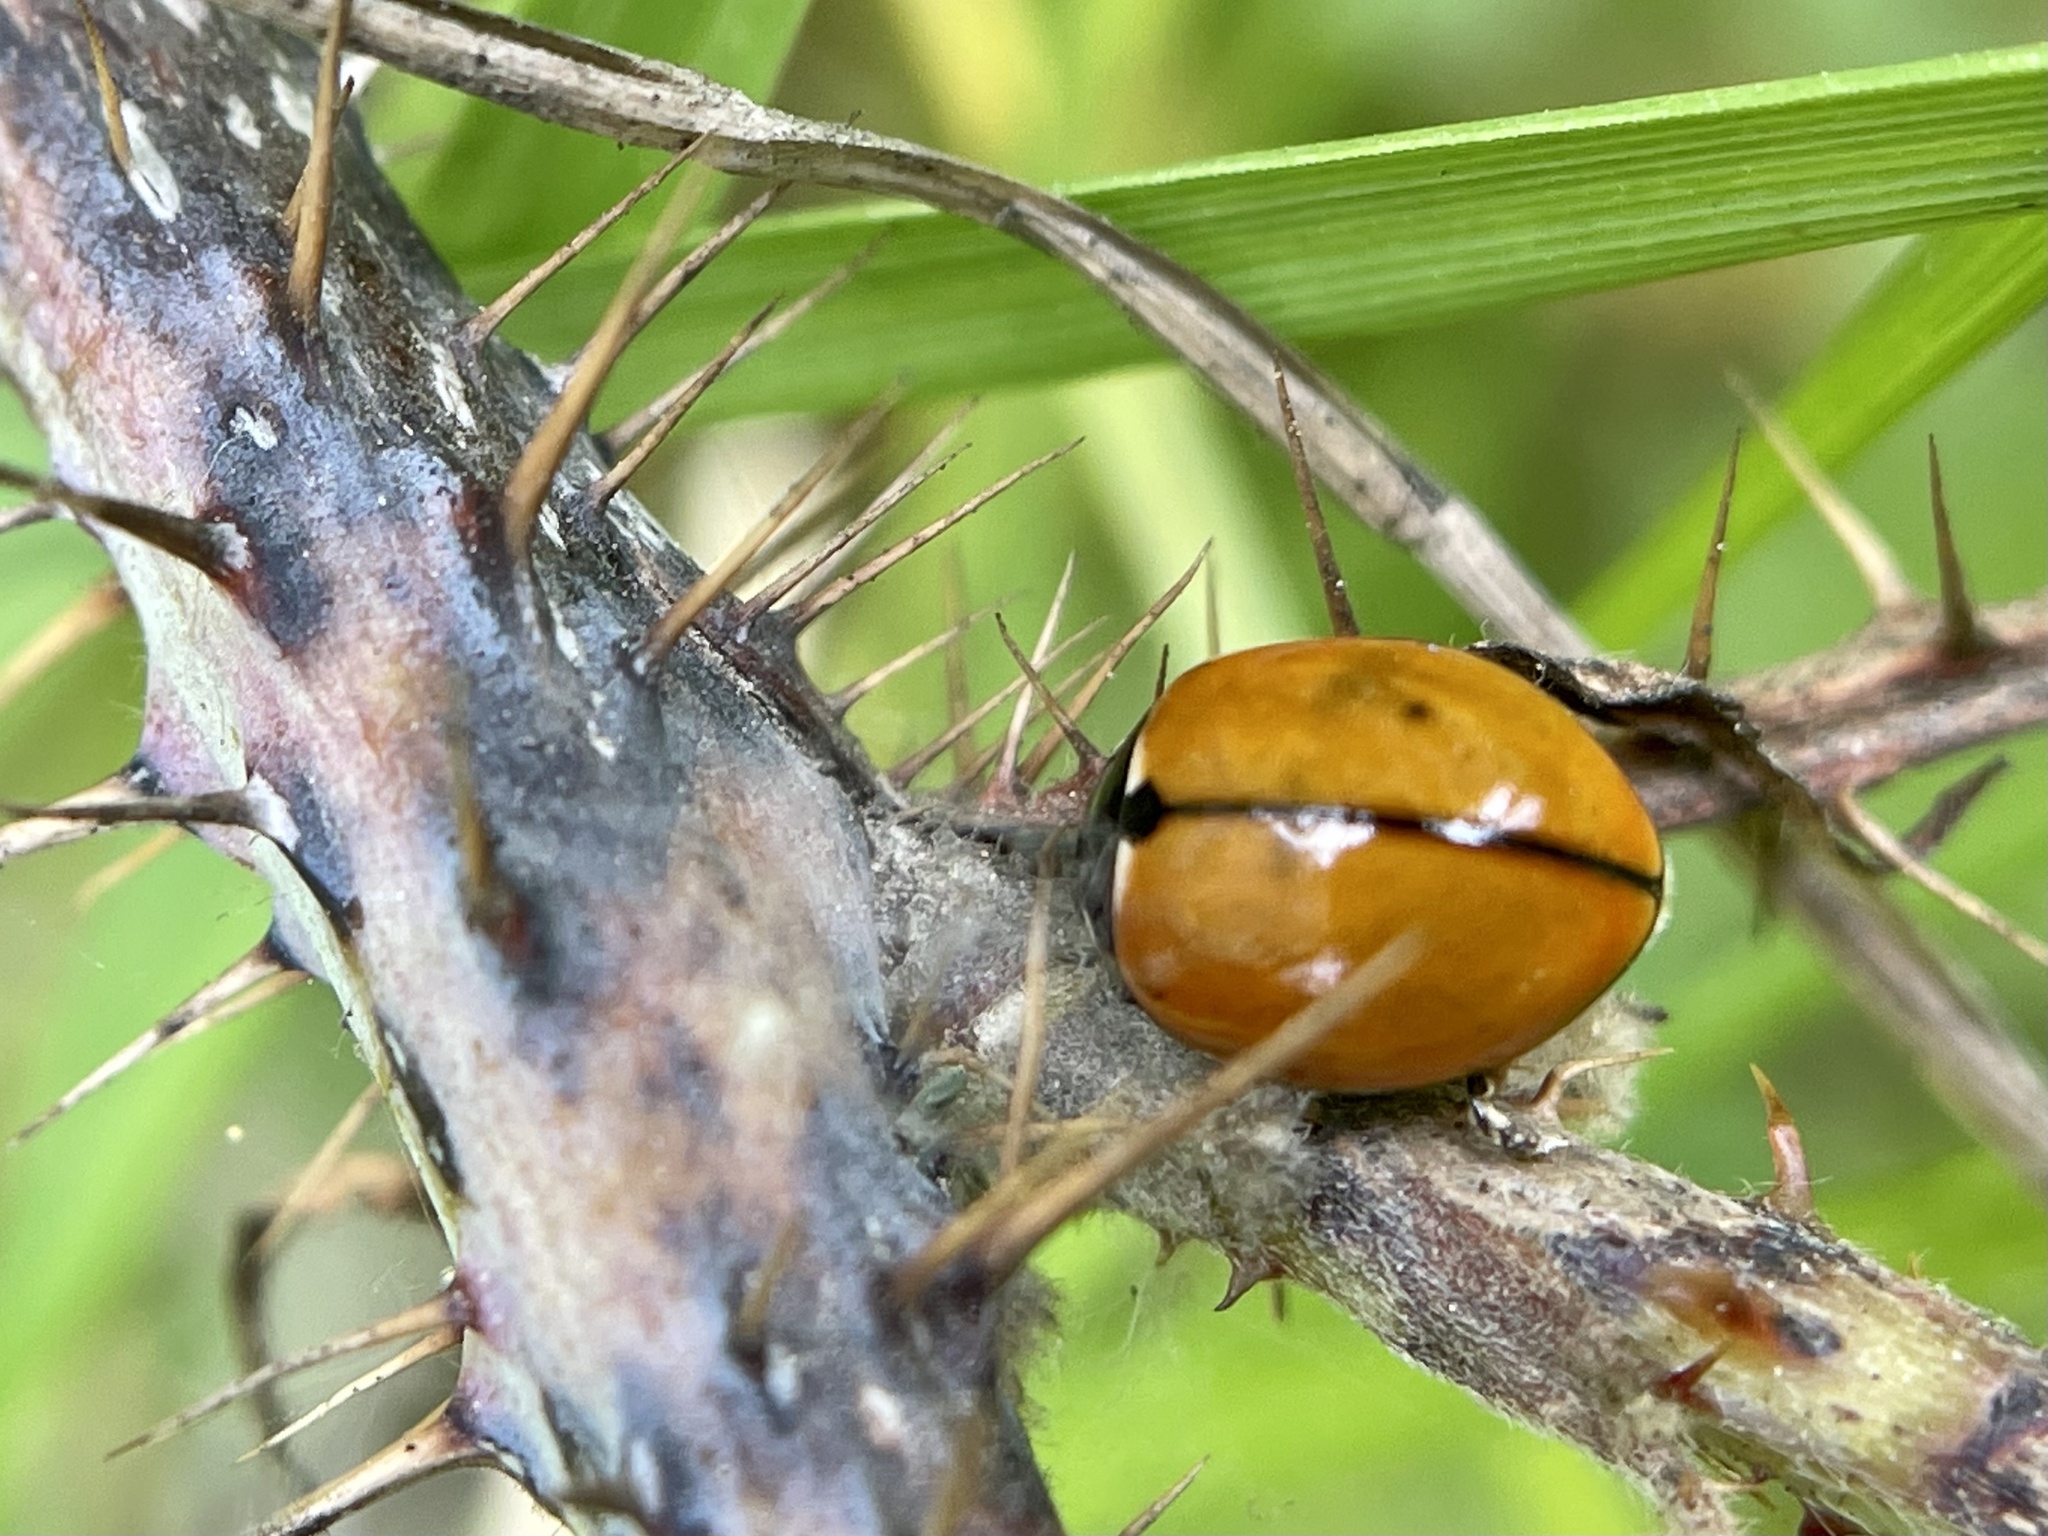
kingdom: Animalia
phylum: Arthropoda
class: Insecta
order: Coleoptera
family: Coccinellidae
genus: Coccinella
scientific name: Coccinella californica
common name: Lady beetle
